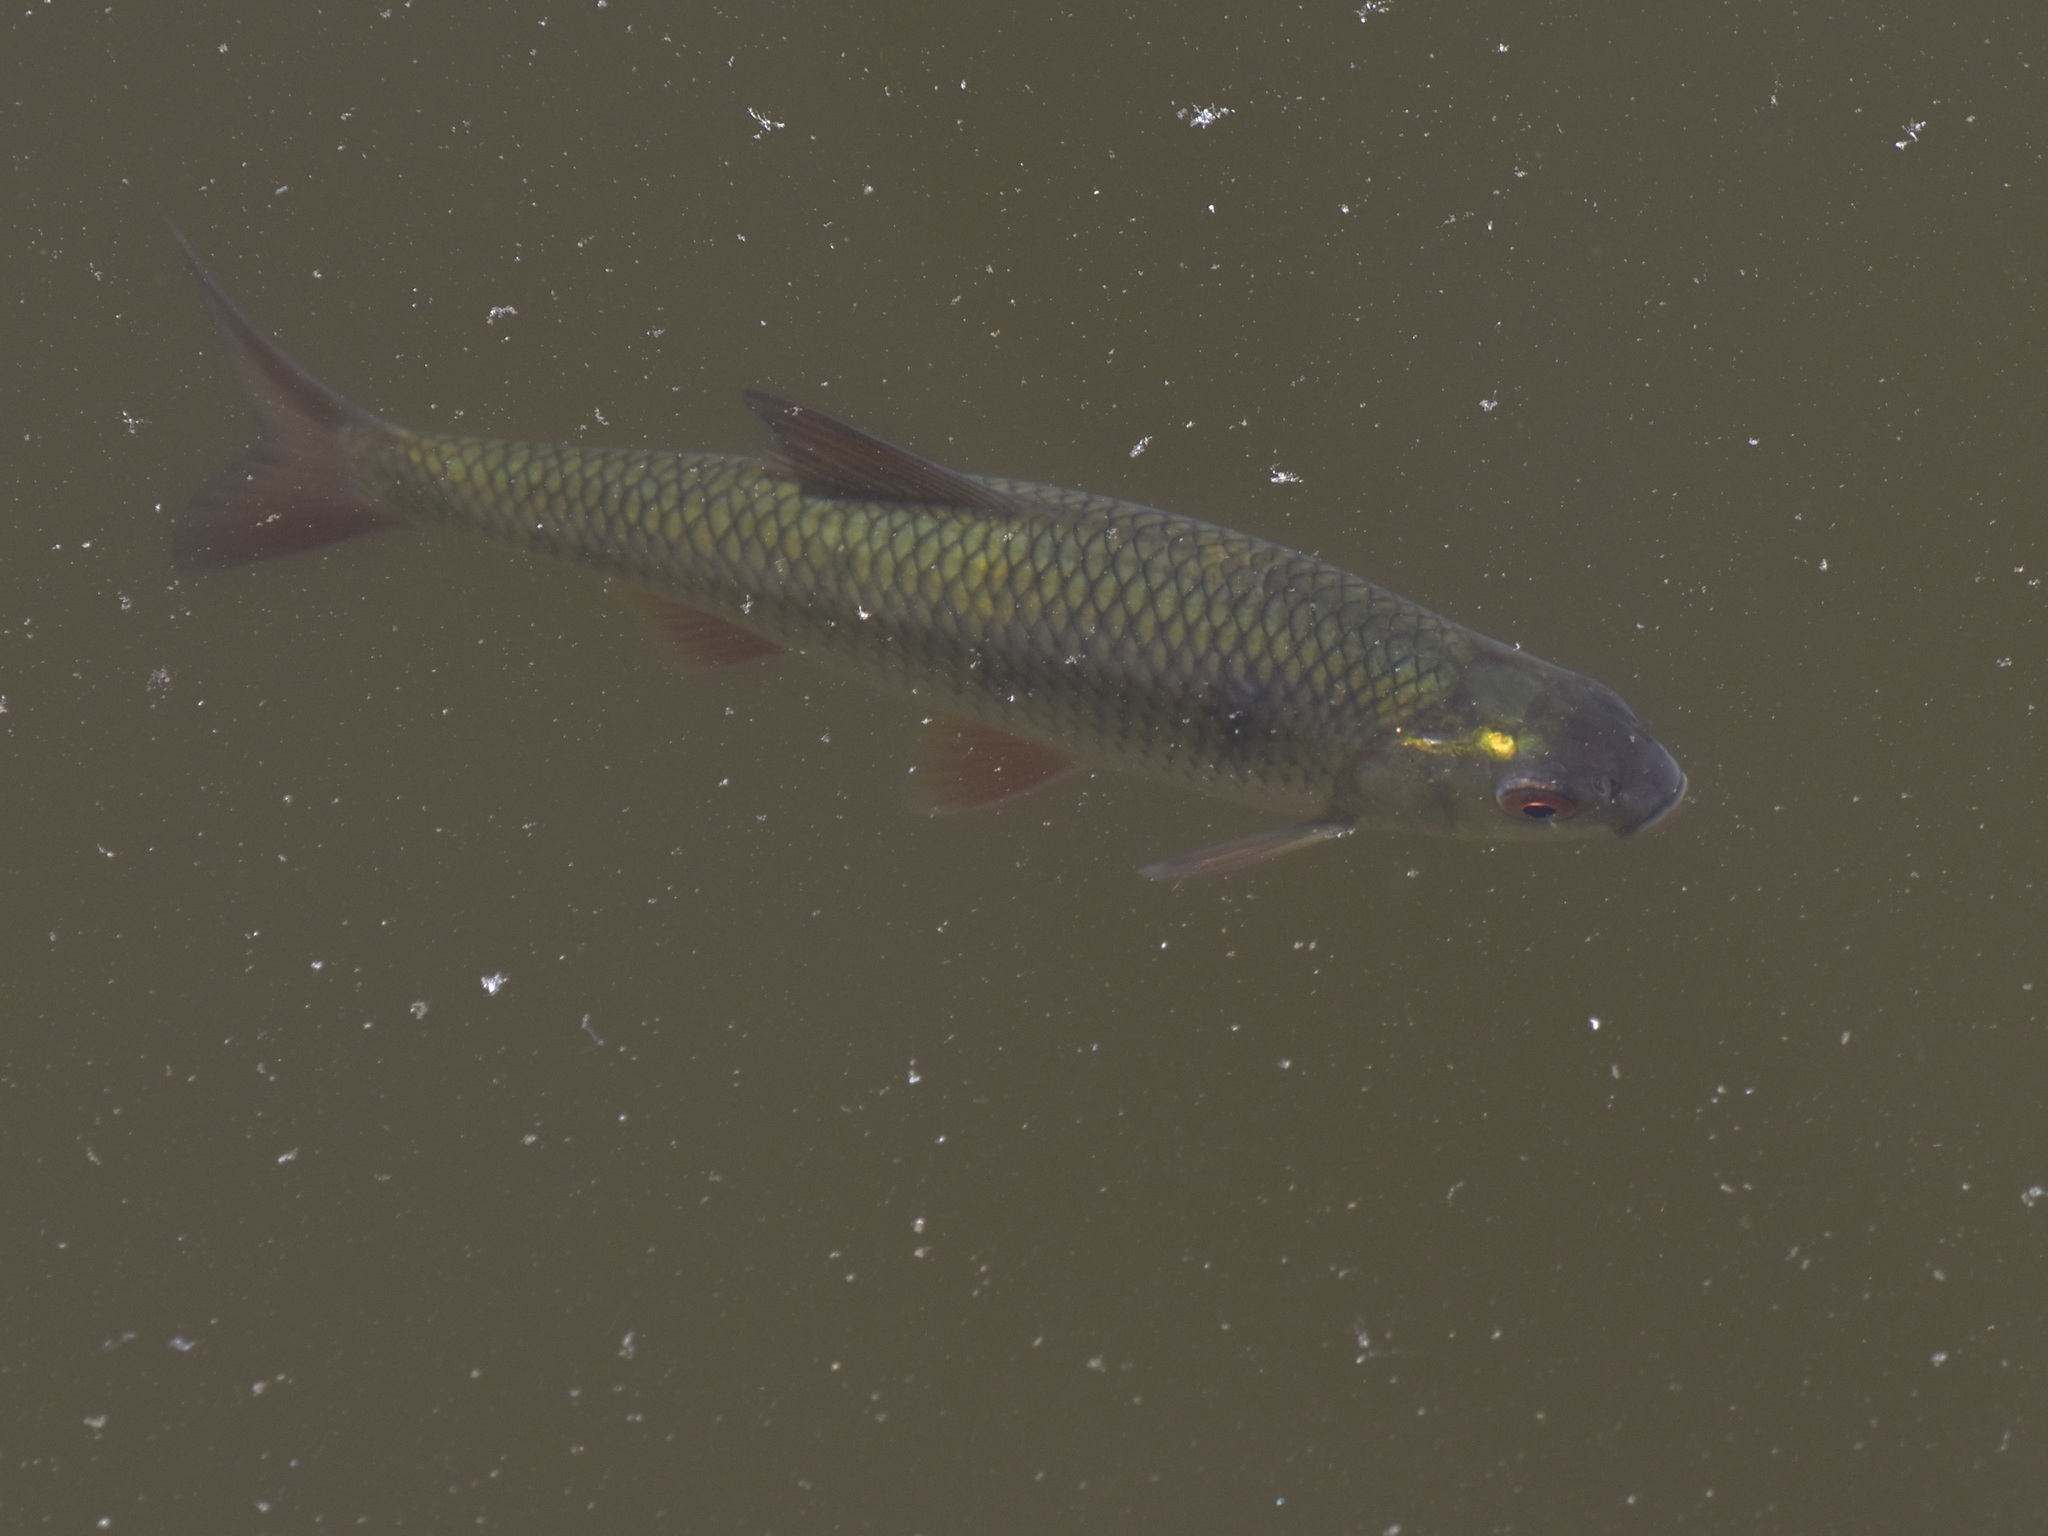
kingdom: Animalia
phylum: Chordata
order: Cypriniformes
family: Cyprinidae
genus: Rutilus
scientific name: Rutilus rutilus
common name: Roach
